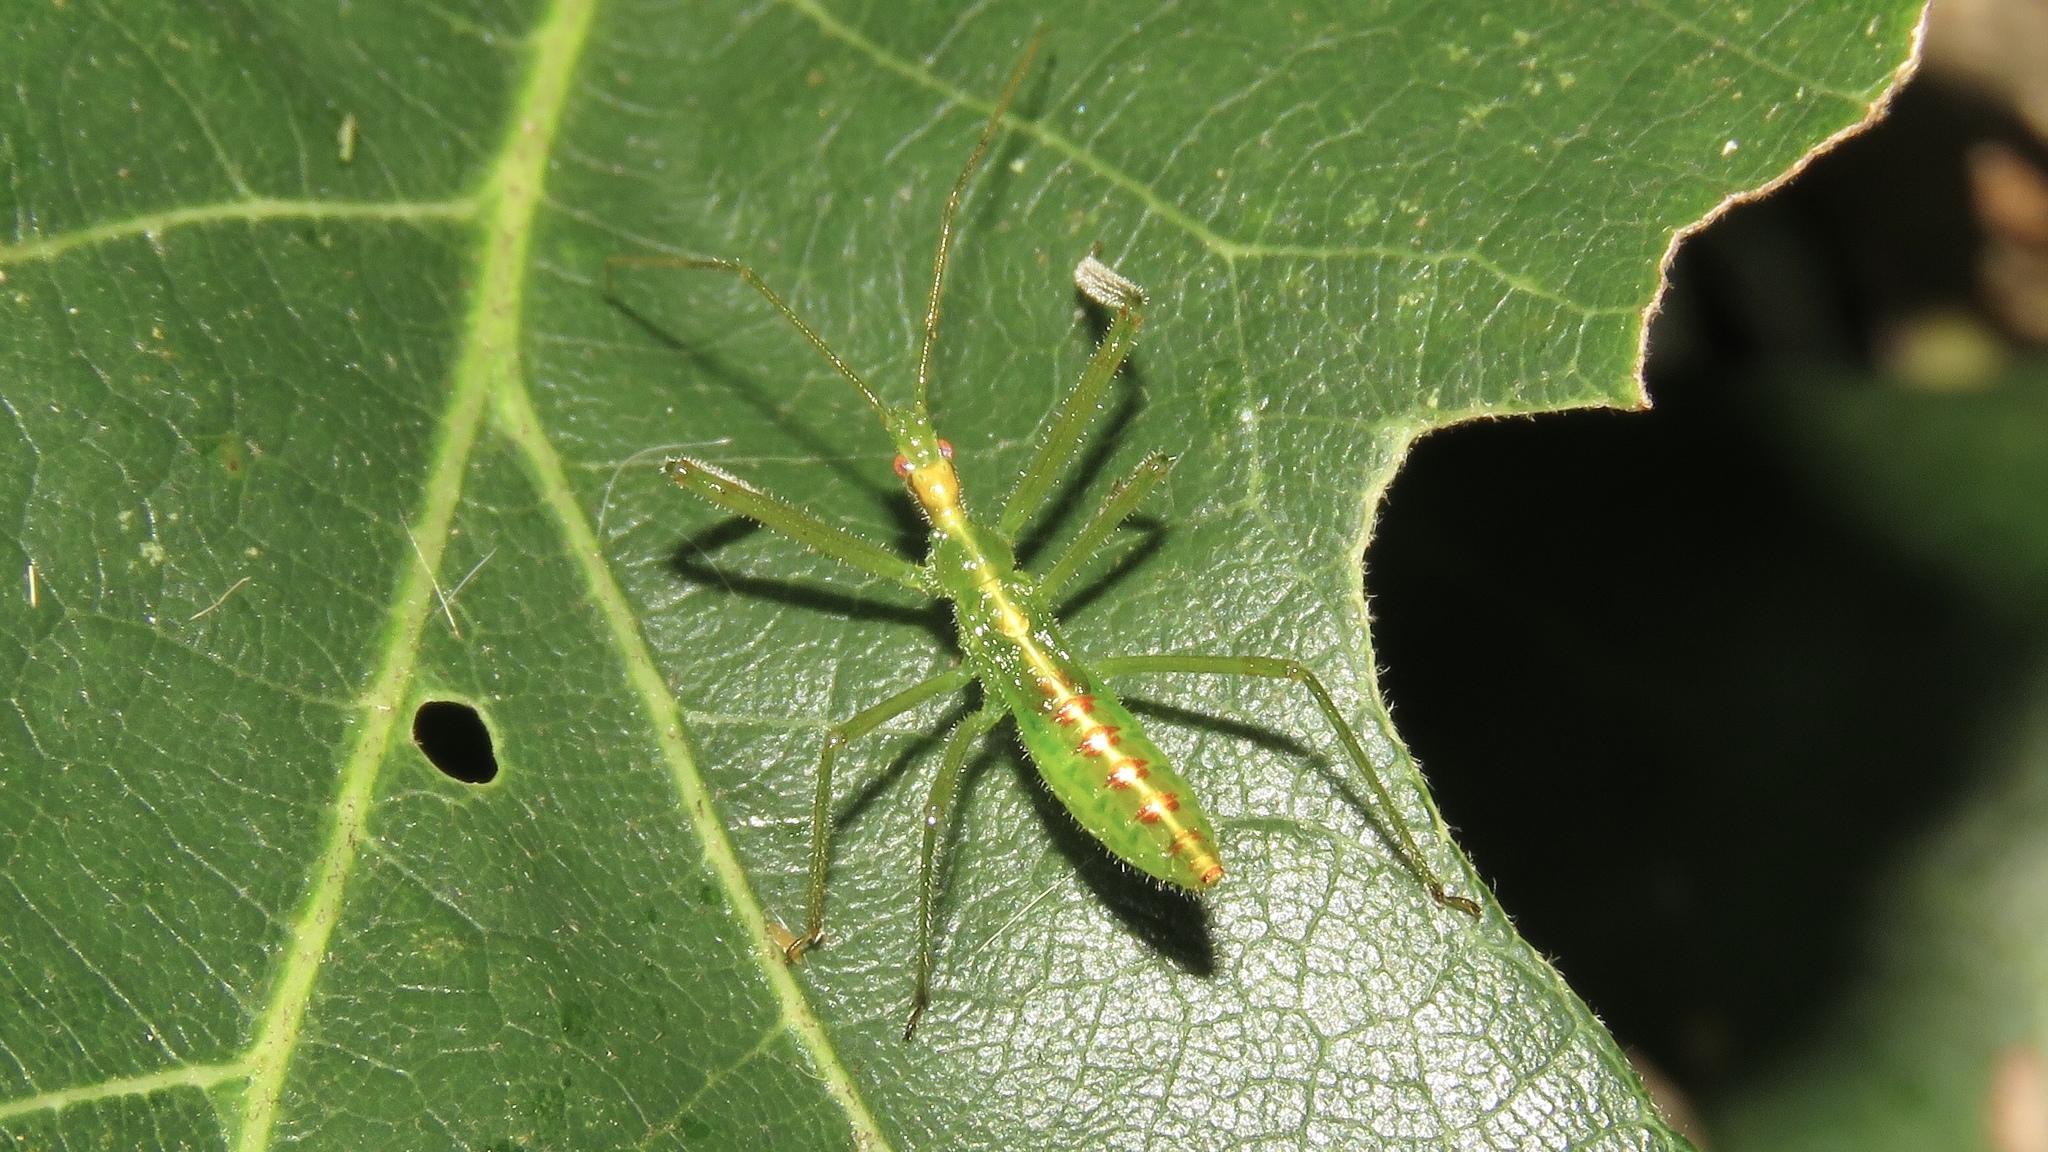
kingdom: Animalia
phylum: Arthropoda
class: Insecta
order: Hemiptera
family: Reduviidae
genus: Zelus
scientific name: Zelus luridus
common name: Pale green assassin bug
